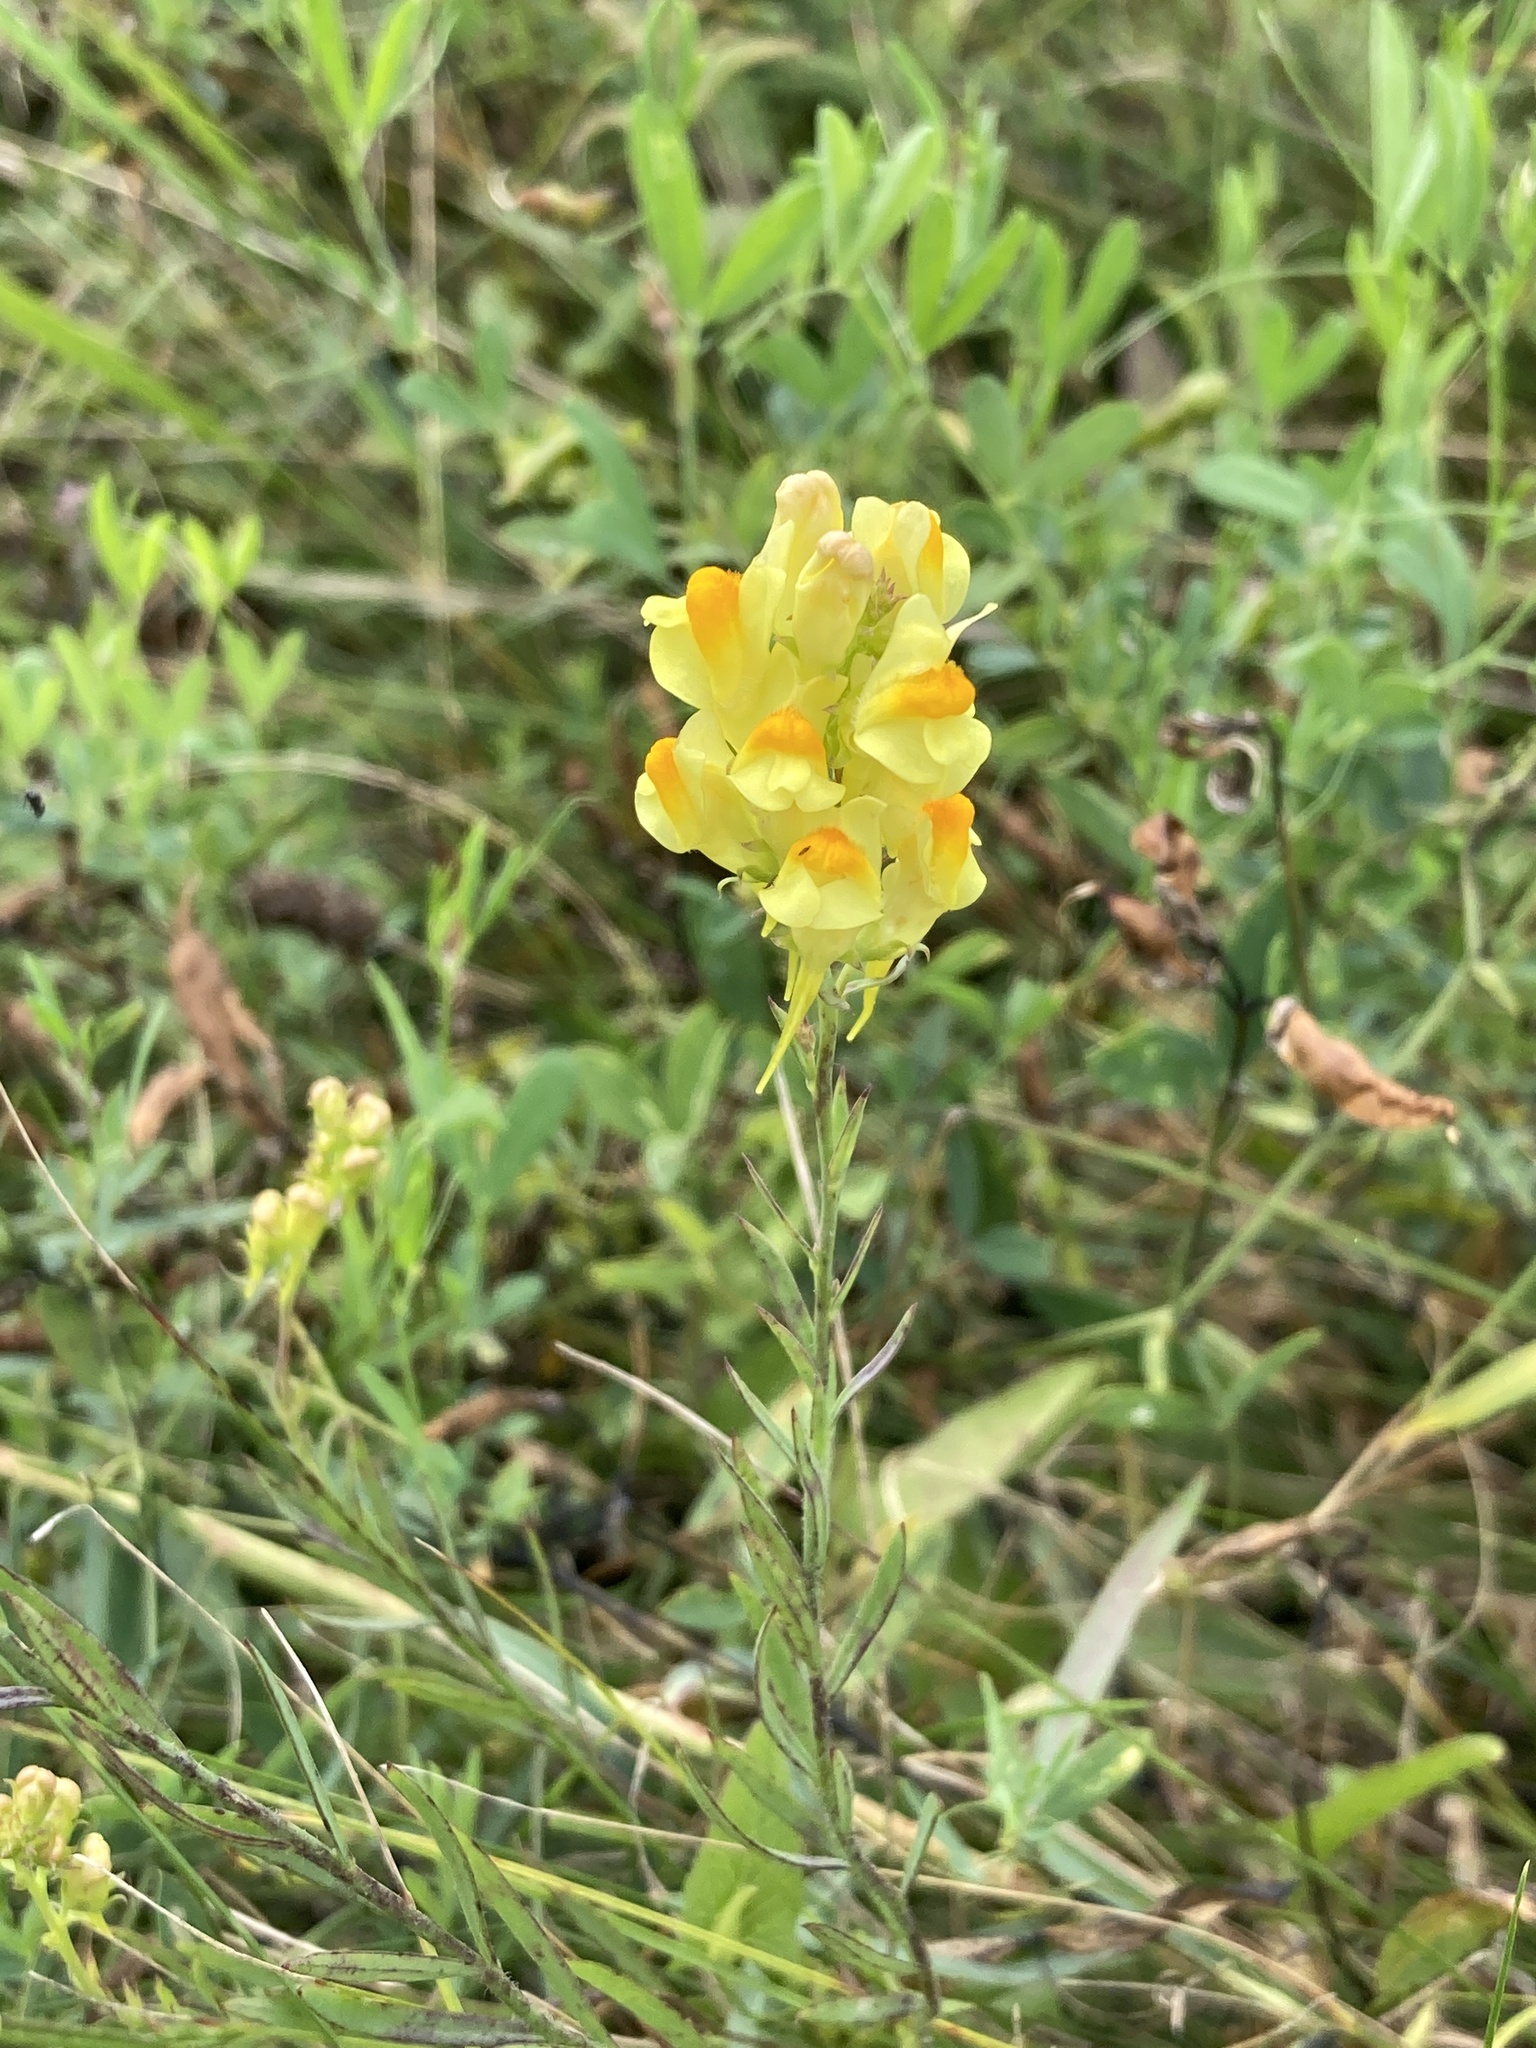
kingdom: Plantae
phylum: Tracheophyta
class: Magnoliopsida
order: Lamiales
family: Plantaginaceae
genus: Linaria
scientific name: Linaria vulgaris
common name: Butter and eggs
